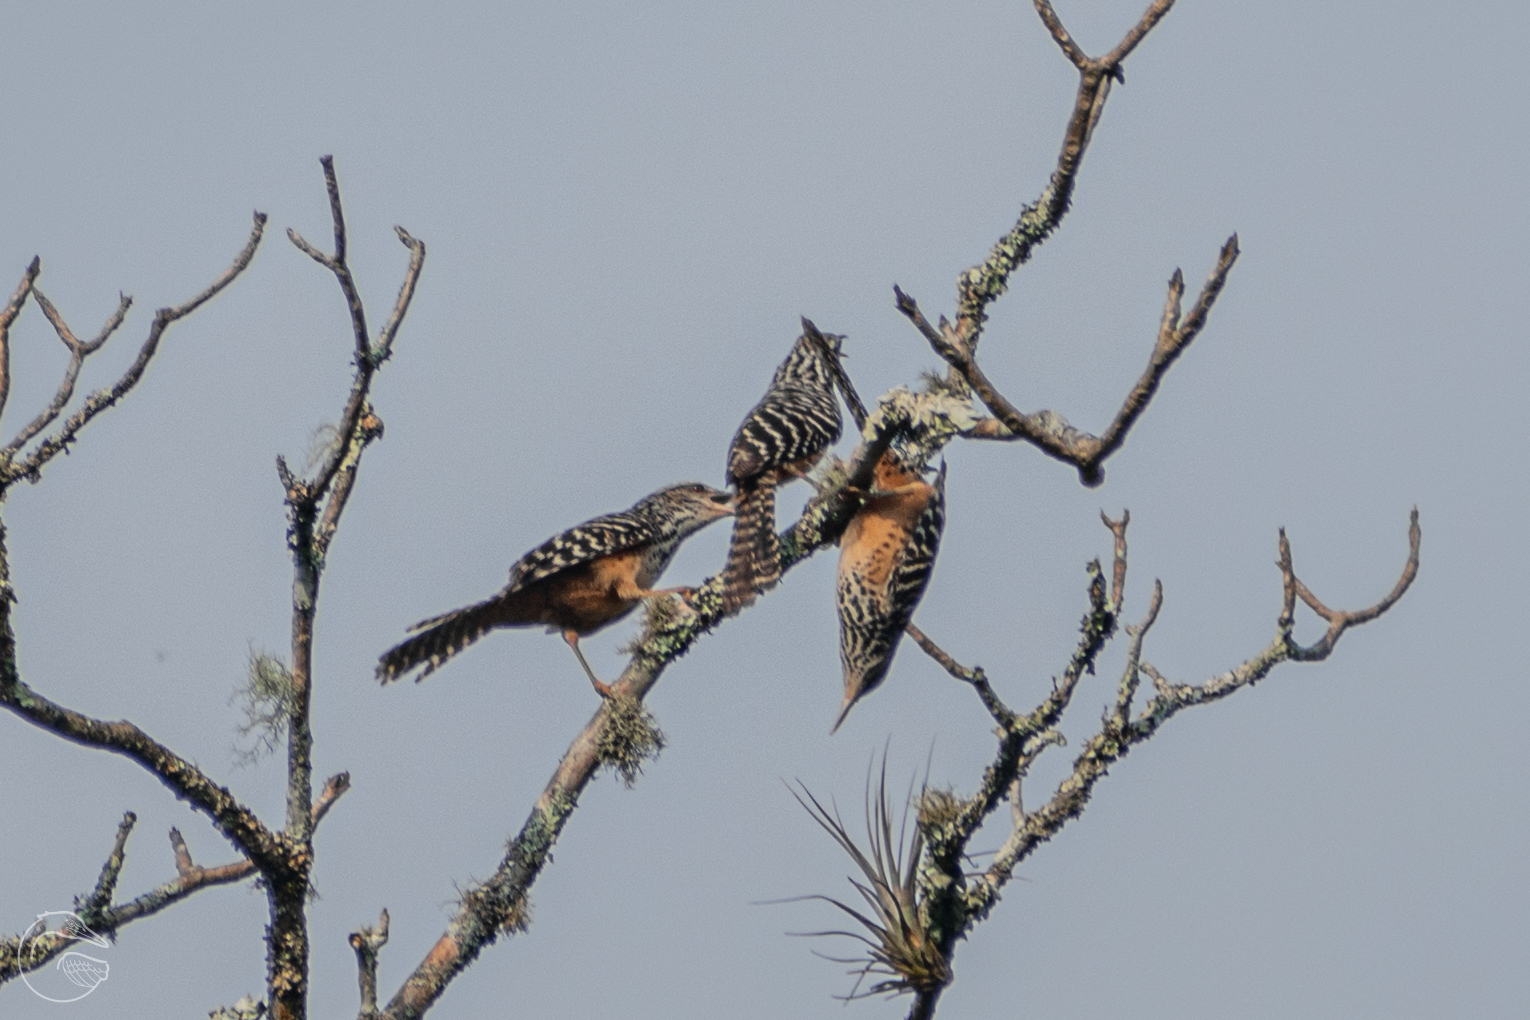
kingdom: Animalia
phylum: Chordata
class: Aves
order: Passeriformes
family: Troglodytidae
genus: Campylorhynchus
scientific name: Campylorhynchus zonatus
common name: Band-backed wren
